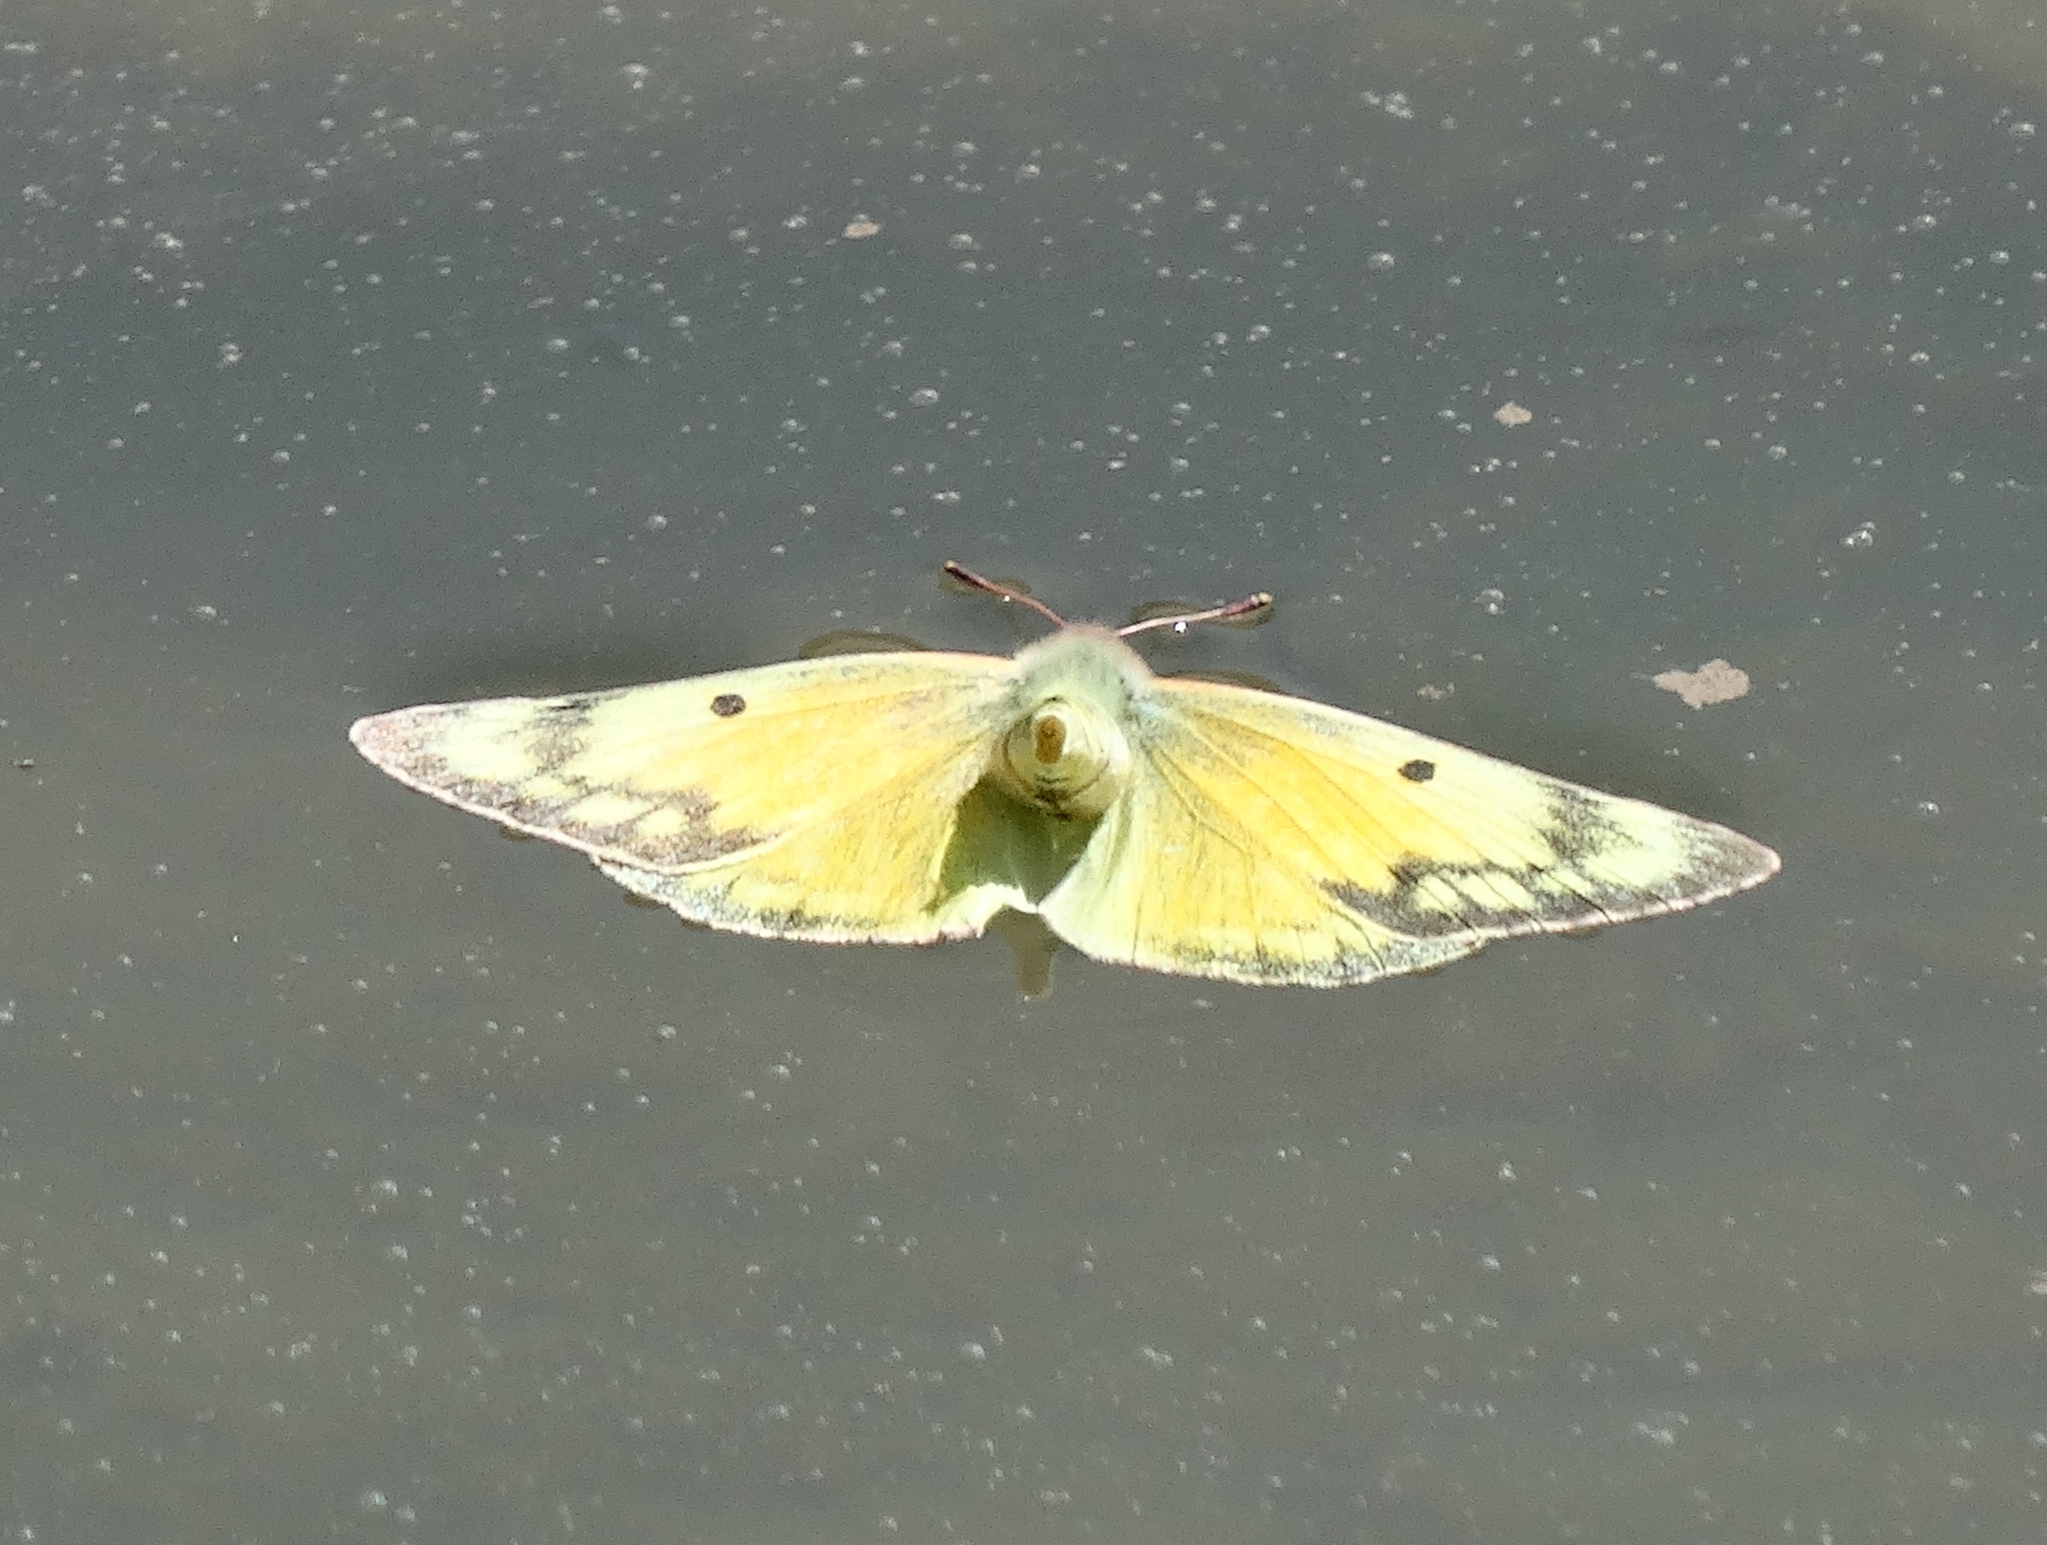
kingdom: Animalia
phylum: Arthropoda
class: Insecta
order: Lepidoptera
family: Pieridae
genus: Colias
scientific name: Colias eurytheme
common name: Alfalfa butterfly
